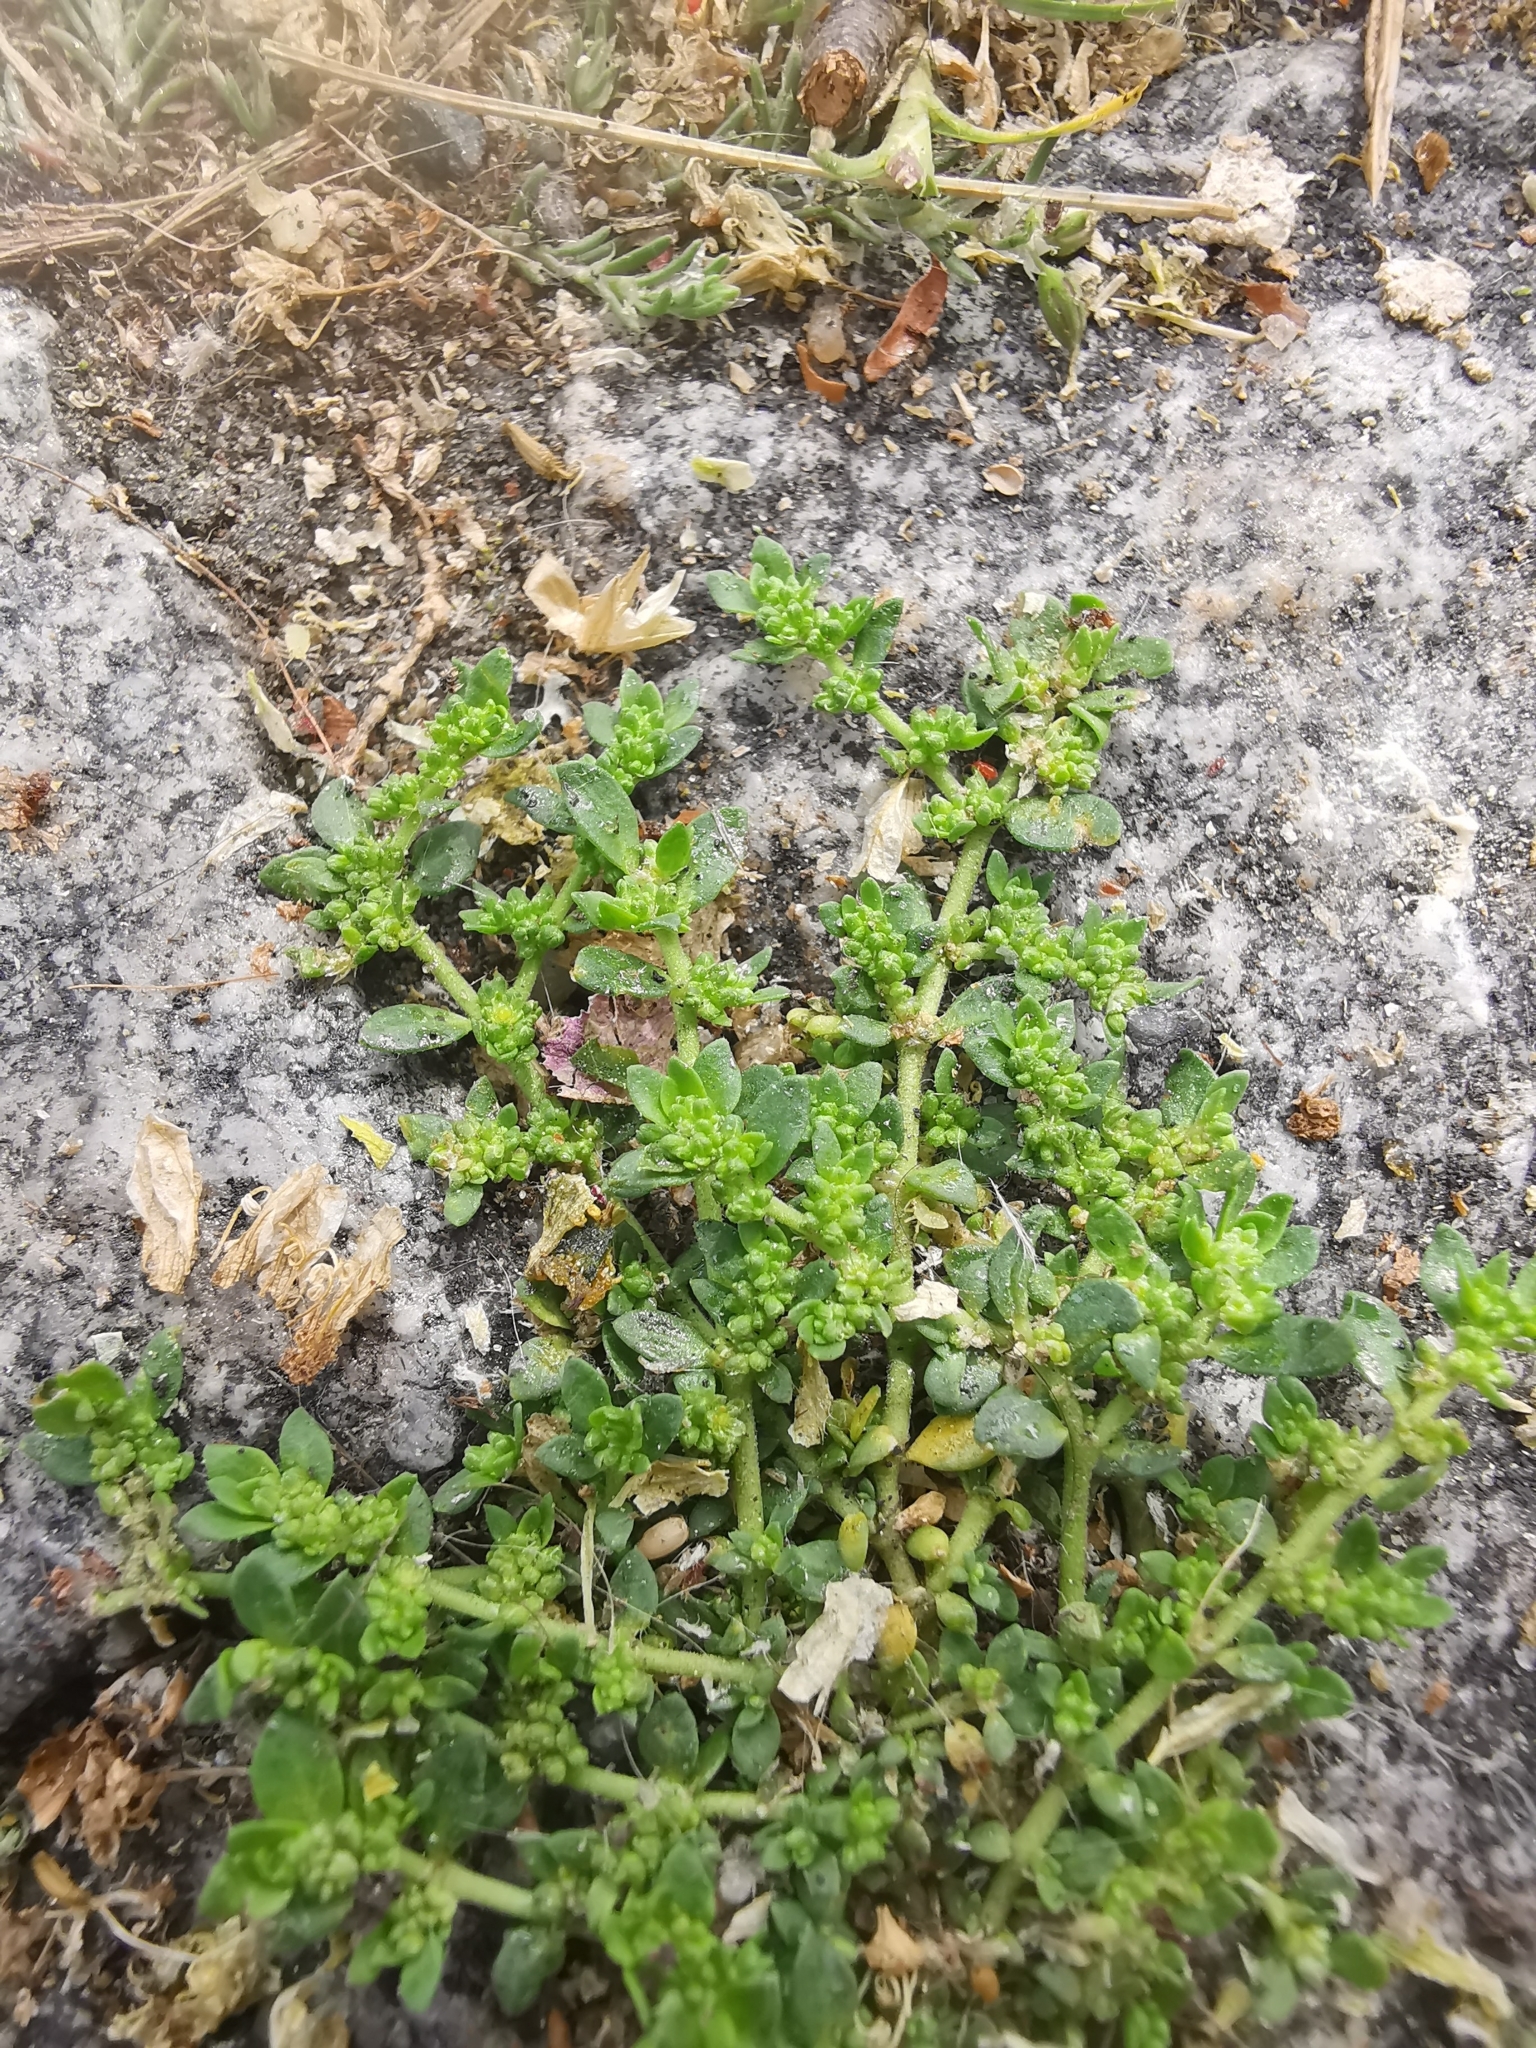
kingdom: Plantae
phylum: Tracheophyta
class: Magnoliopsida
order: Caryophyllales
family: Caryophyllaceae
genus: Herniaria
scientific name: Herniaria glabra
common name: Smooth rupturewort
